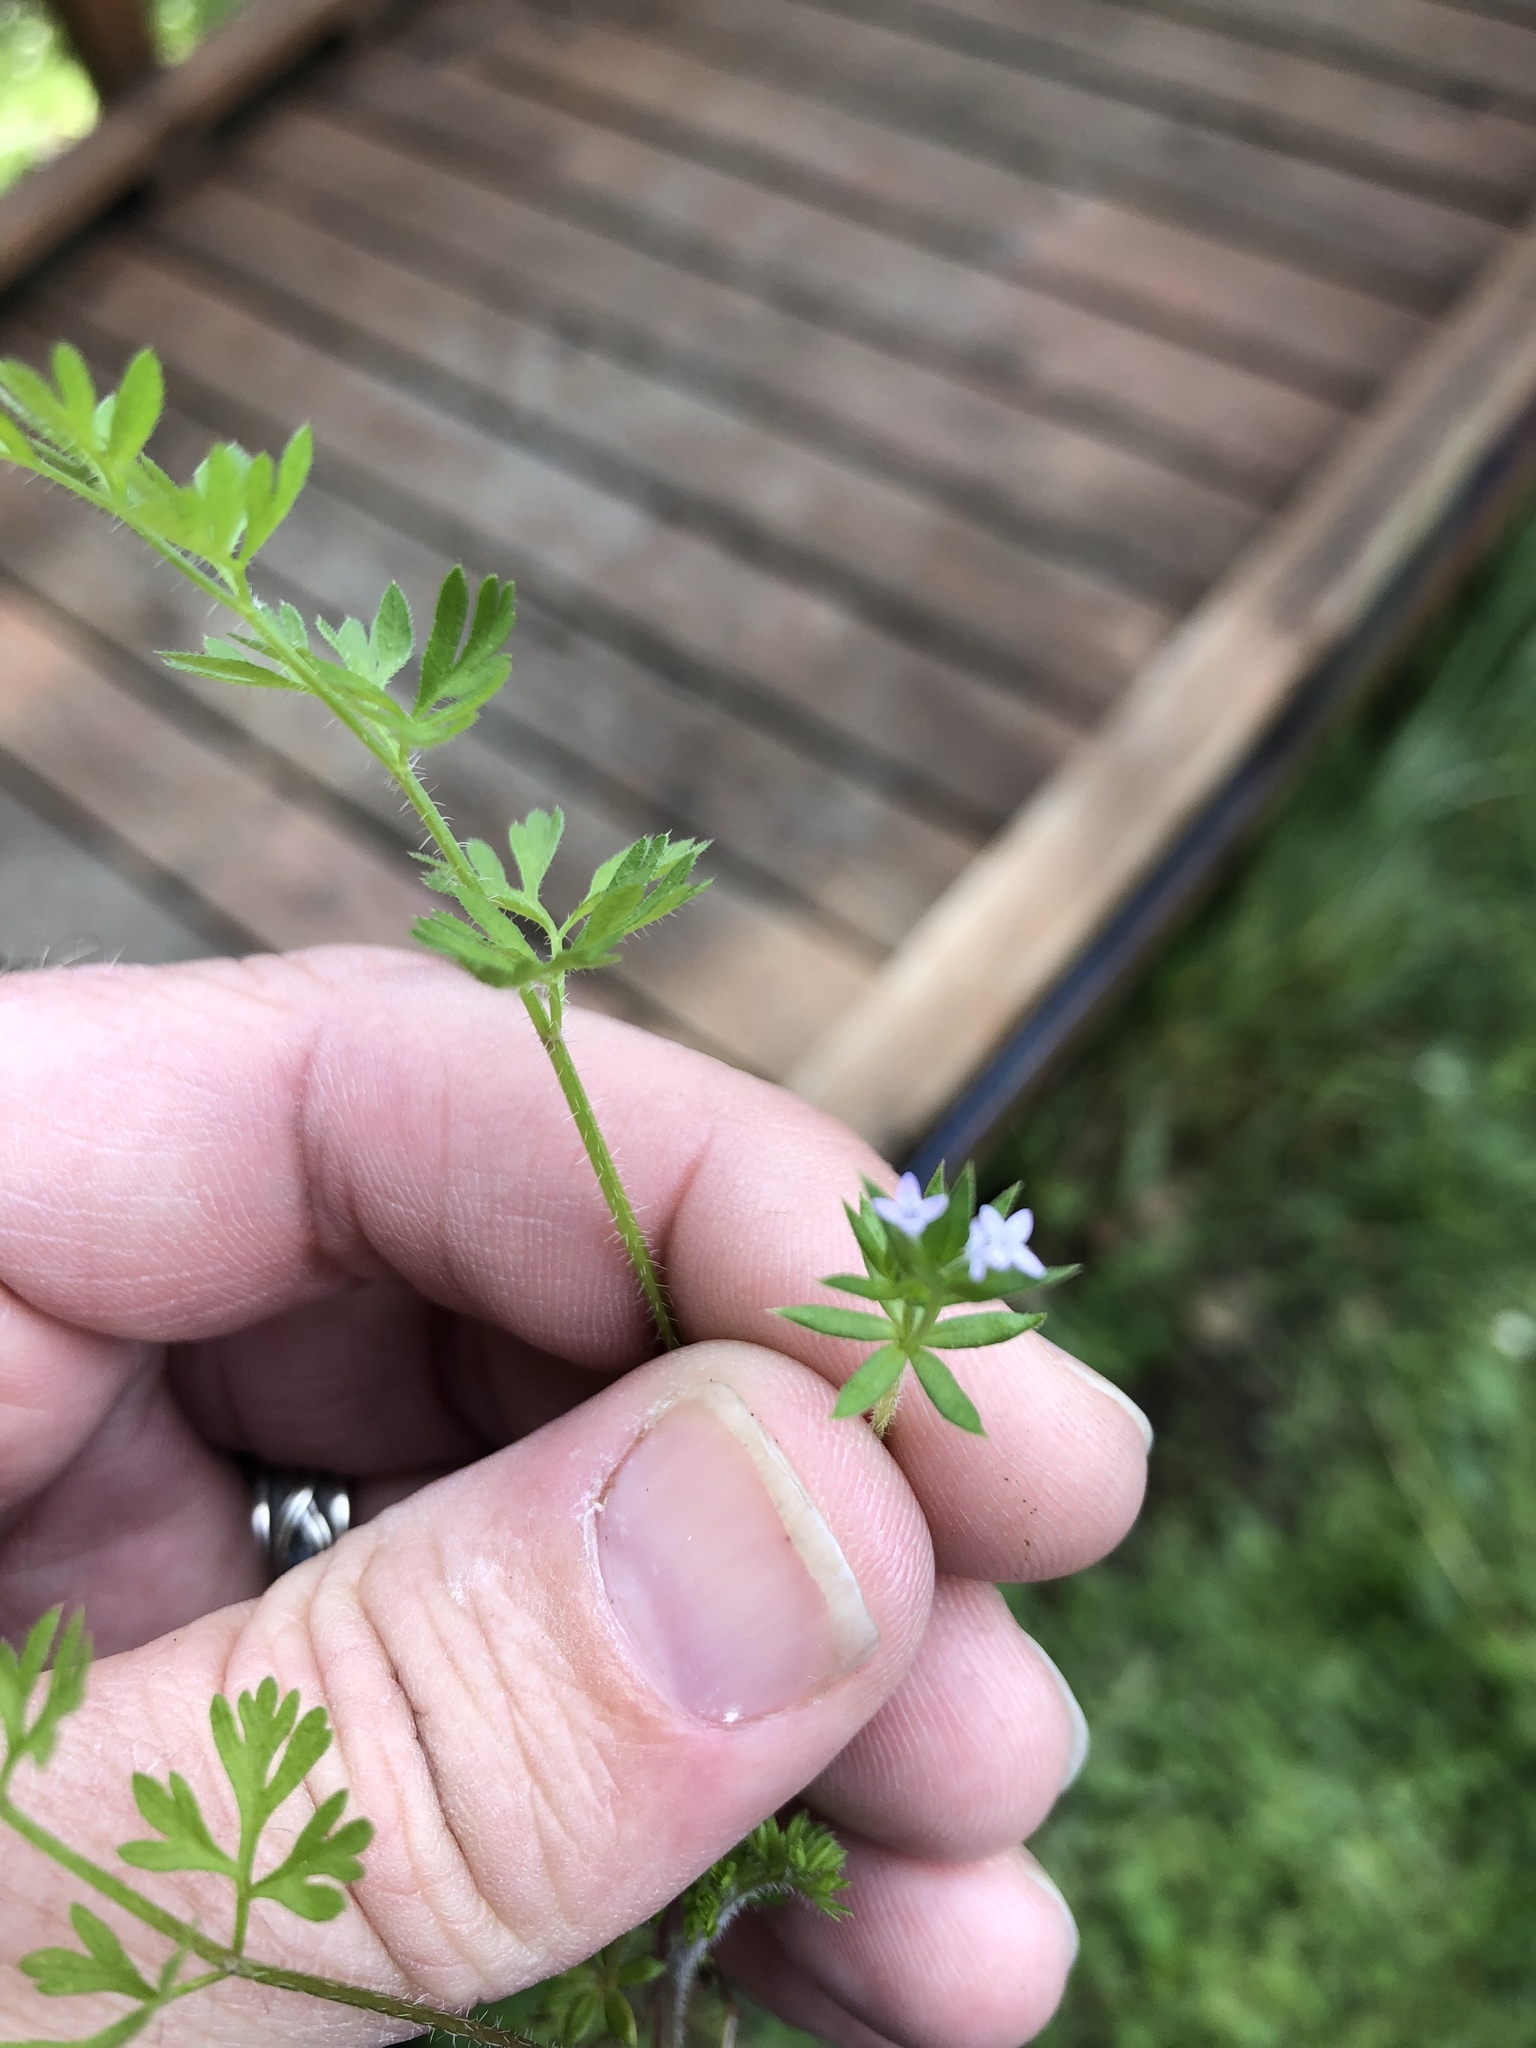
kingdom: Plantae
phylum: Tracheophyta
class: Magnoliopsida
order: Gentianales
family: Rubiaceae
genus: Sherardia
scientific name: Sherardia arvensis
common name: Field madder
